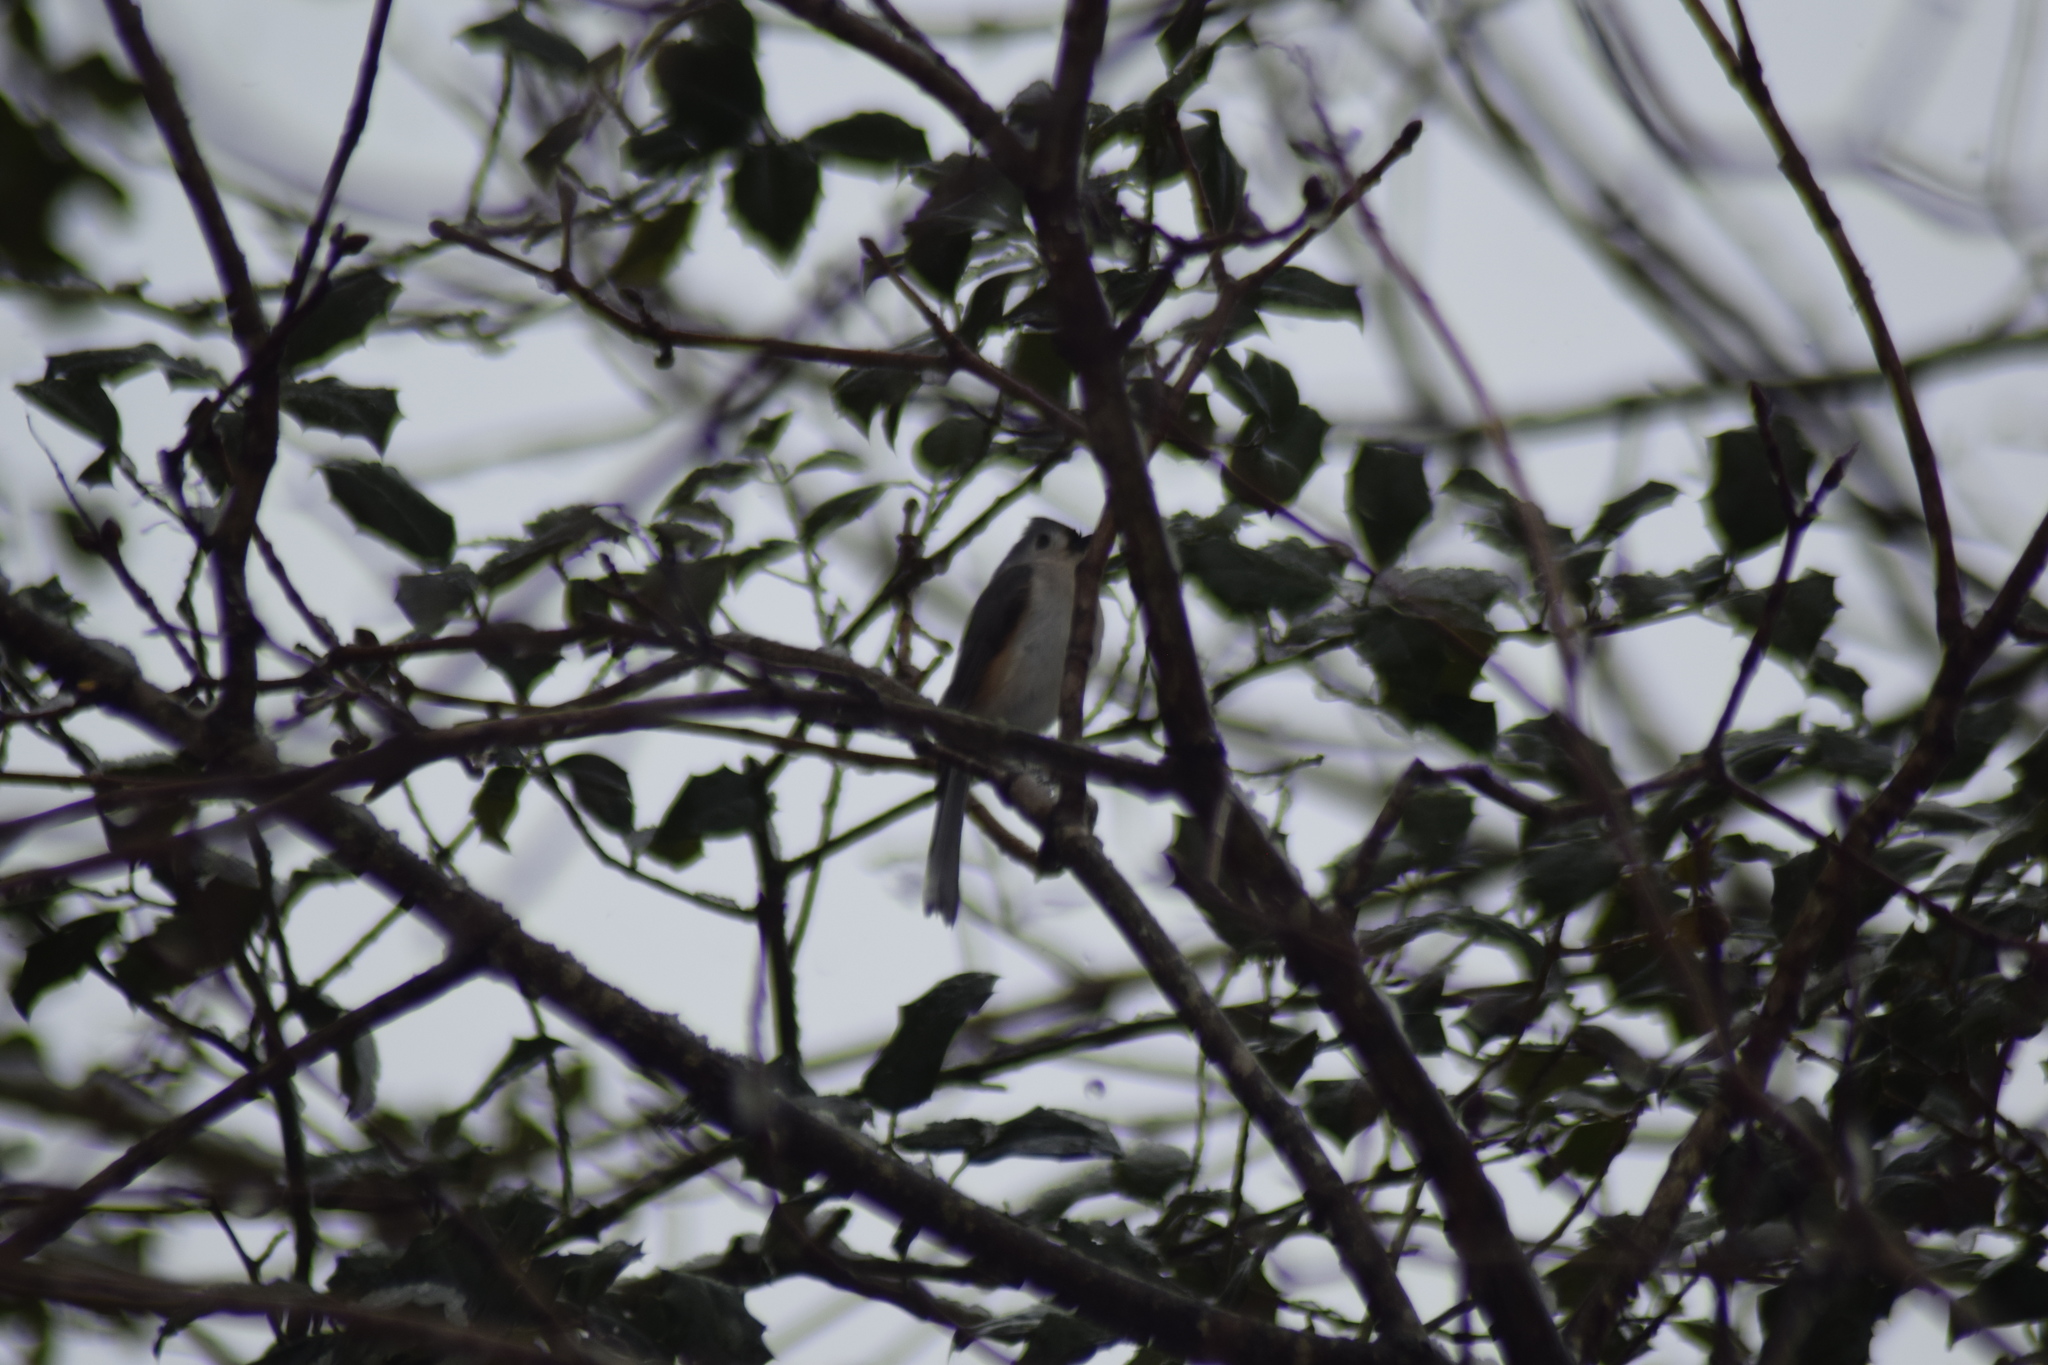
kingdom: Animalia
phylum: Chordata
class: Aves
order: Passeriformes
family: Paridae
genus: Baeolophus
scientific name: Baeolophus bicolor
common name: Tufted titmouse
